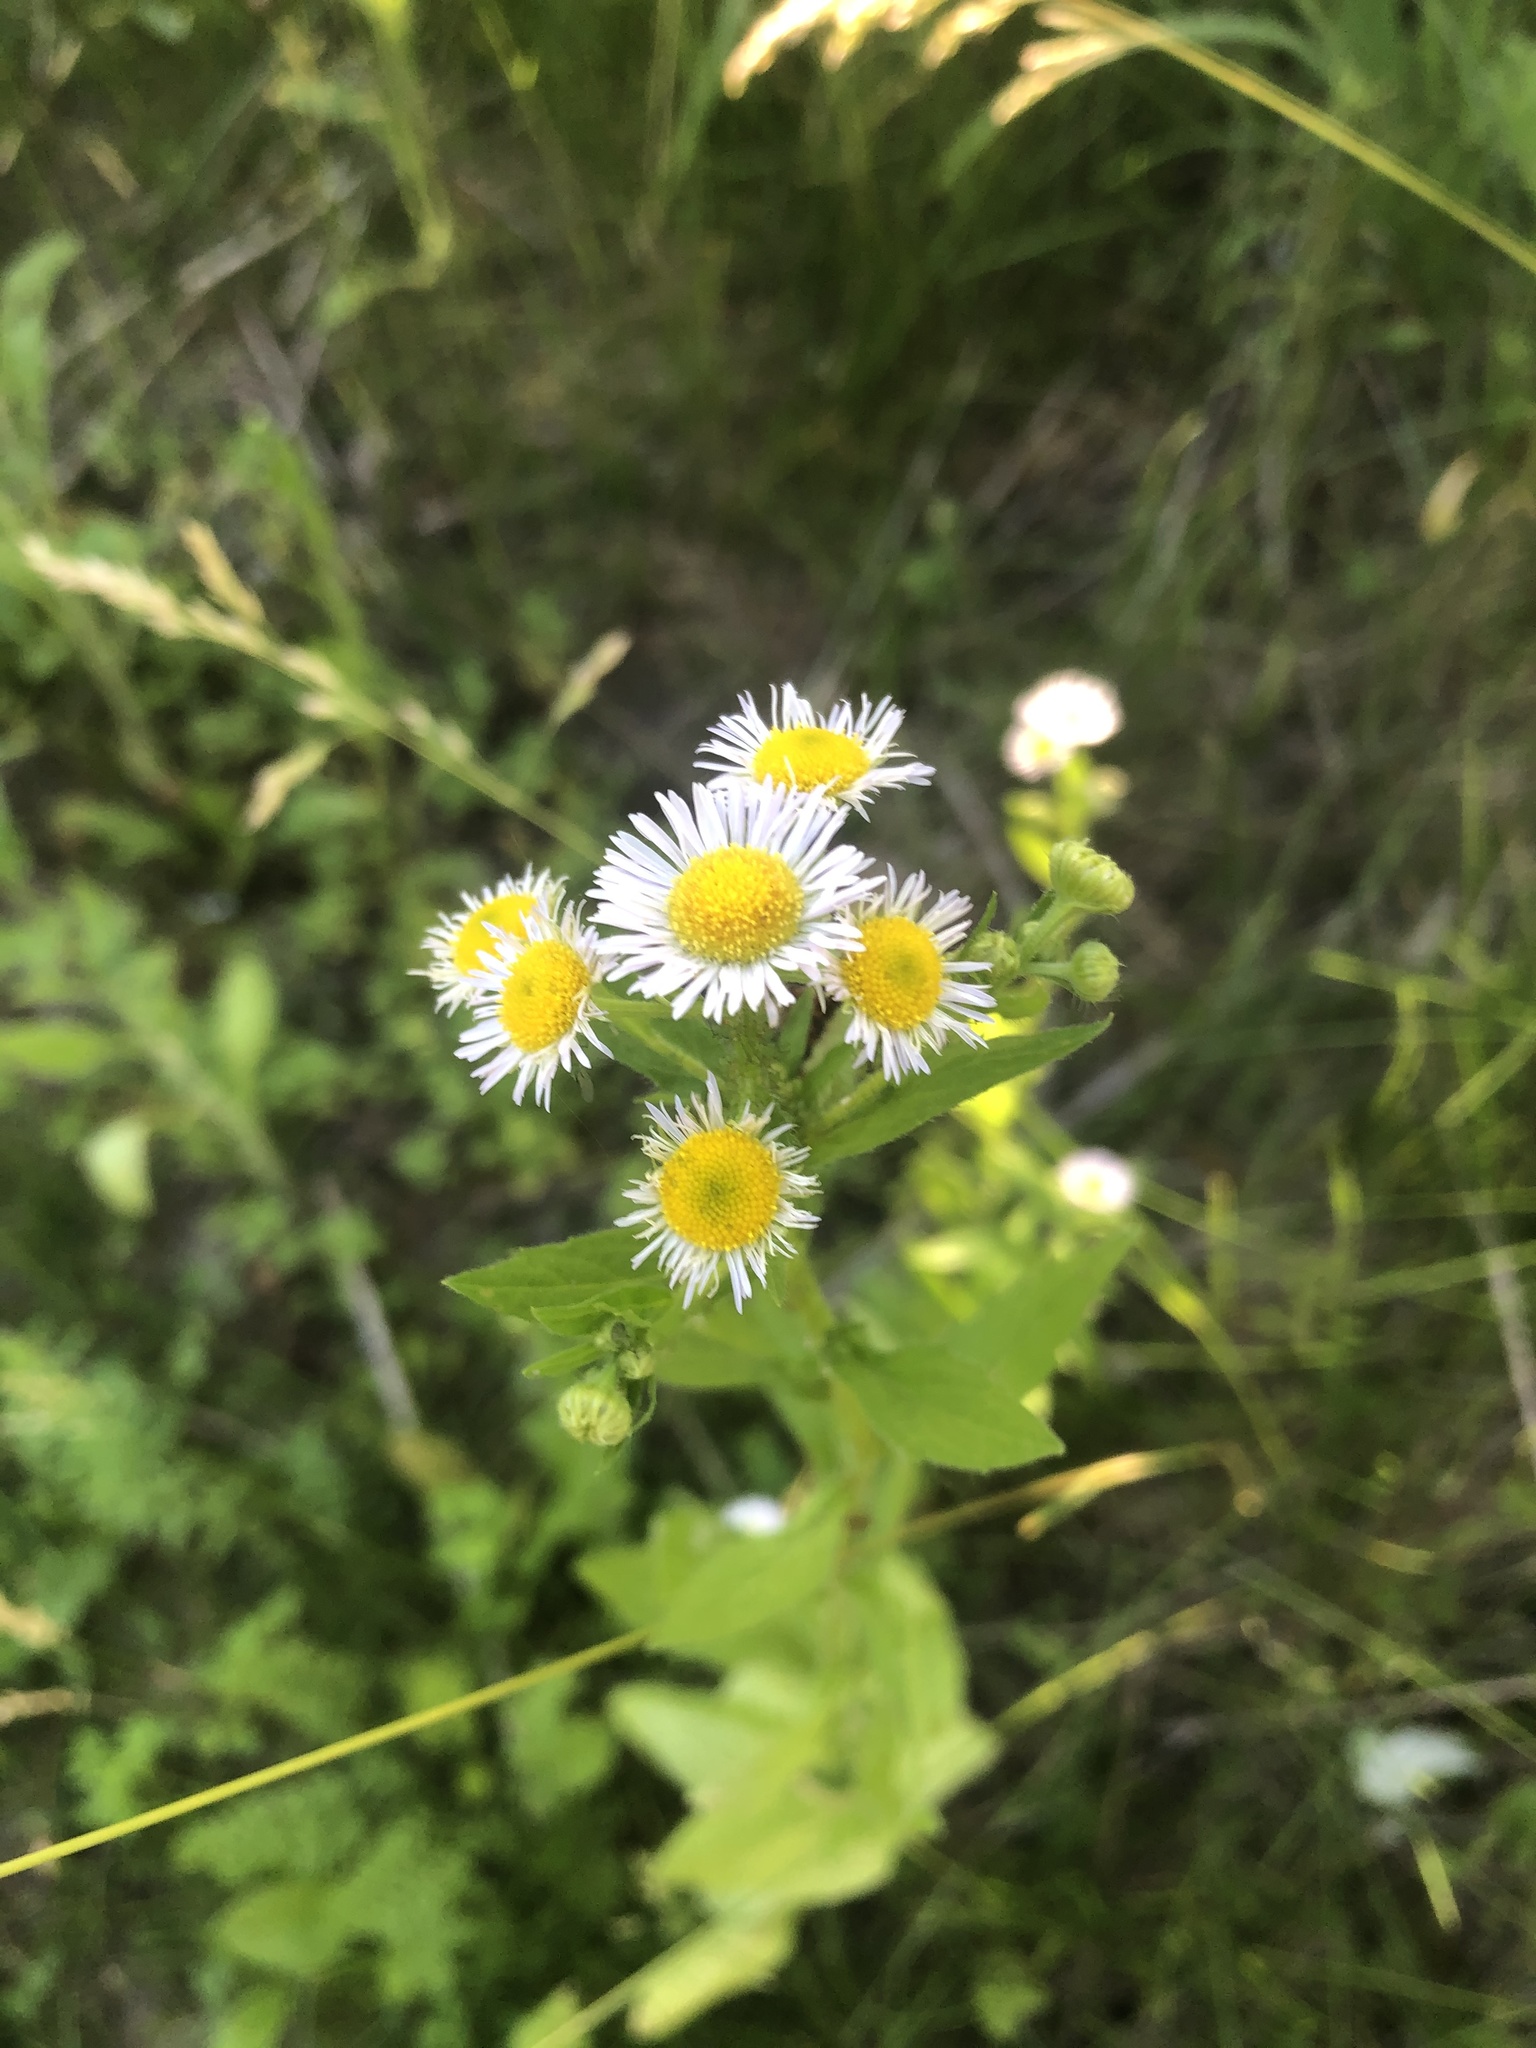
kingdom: Plantae
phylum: Tracheophyta
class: Magnoliopsida
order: Asterales
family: Asteraceae
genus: Erigeron
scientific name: Erigeron annuus
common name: Tall fleabane
